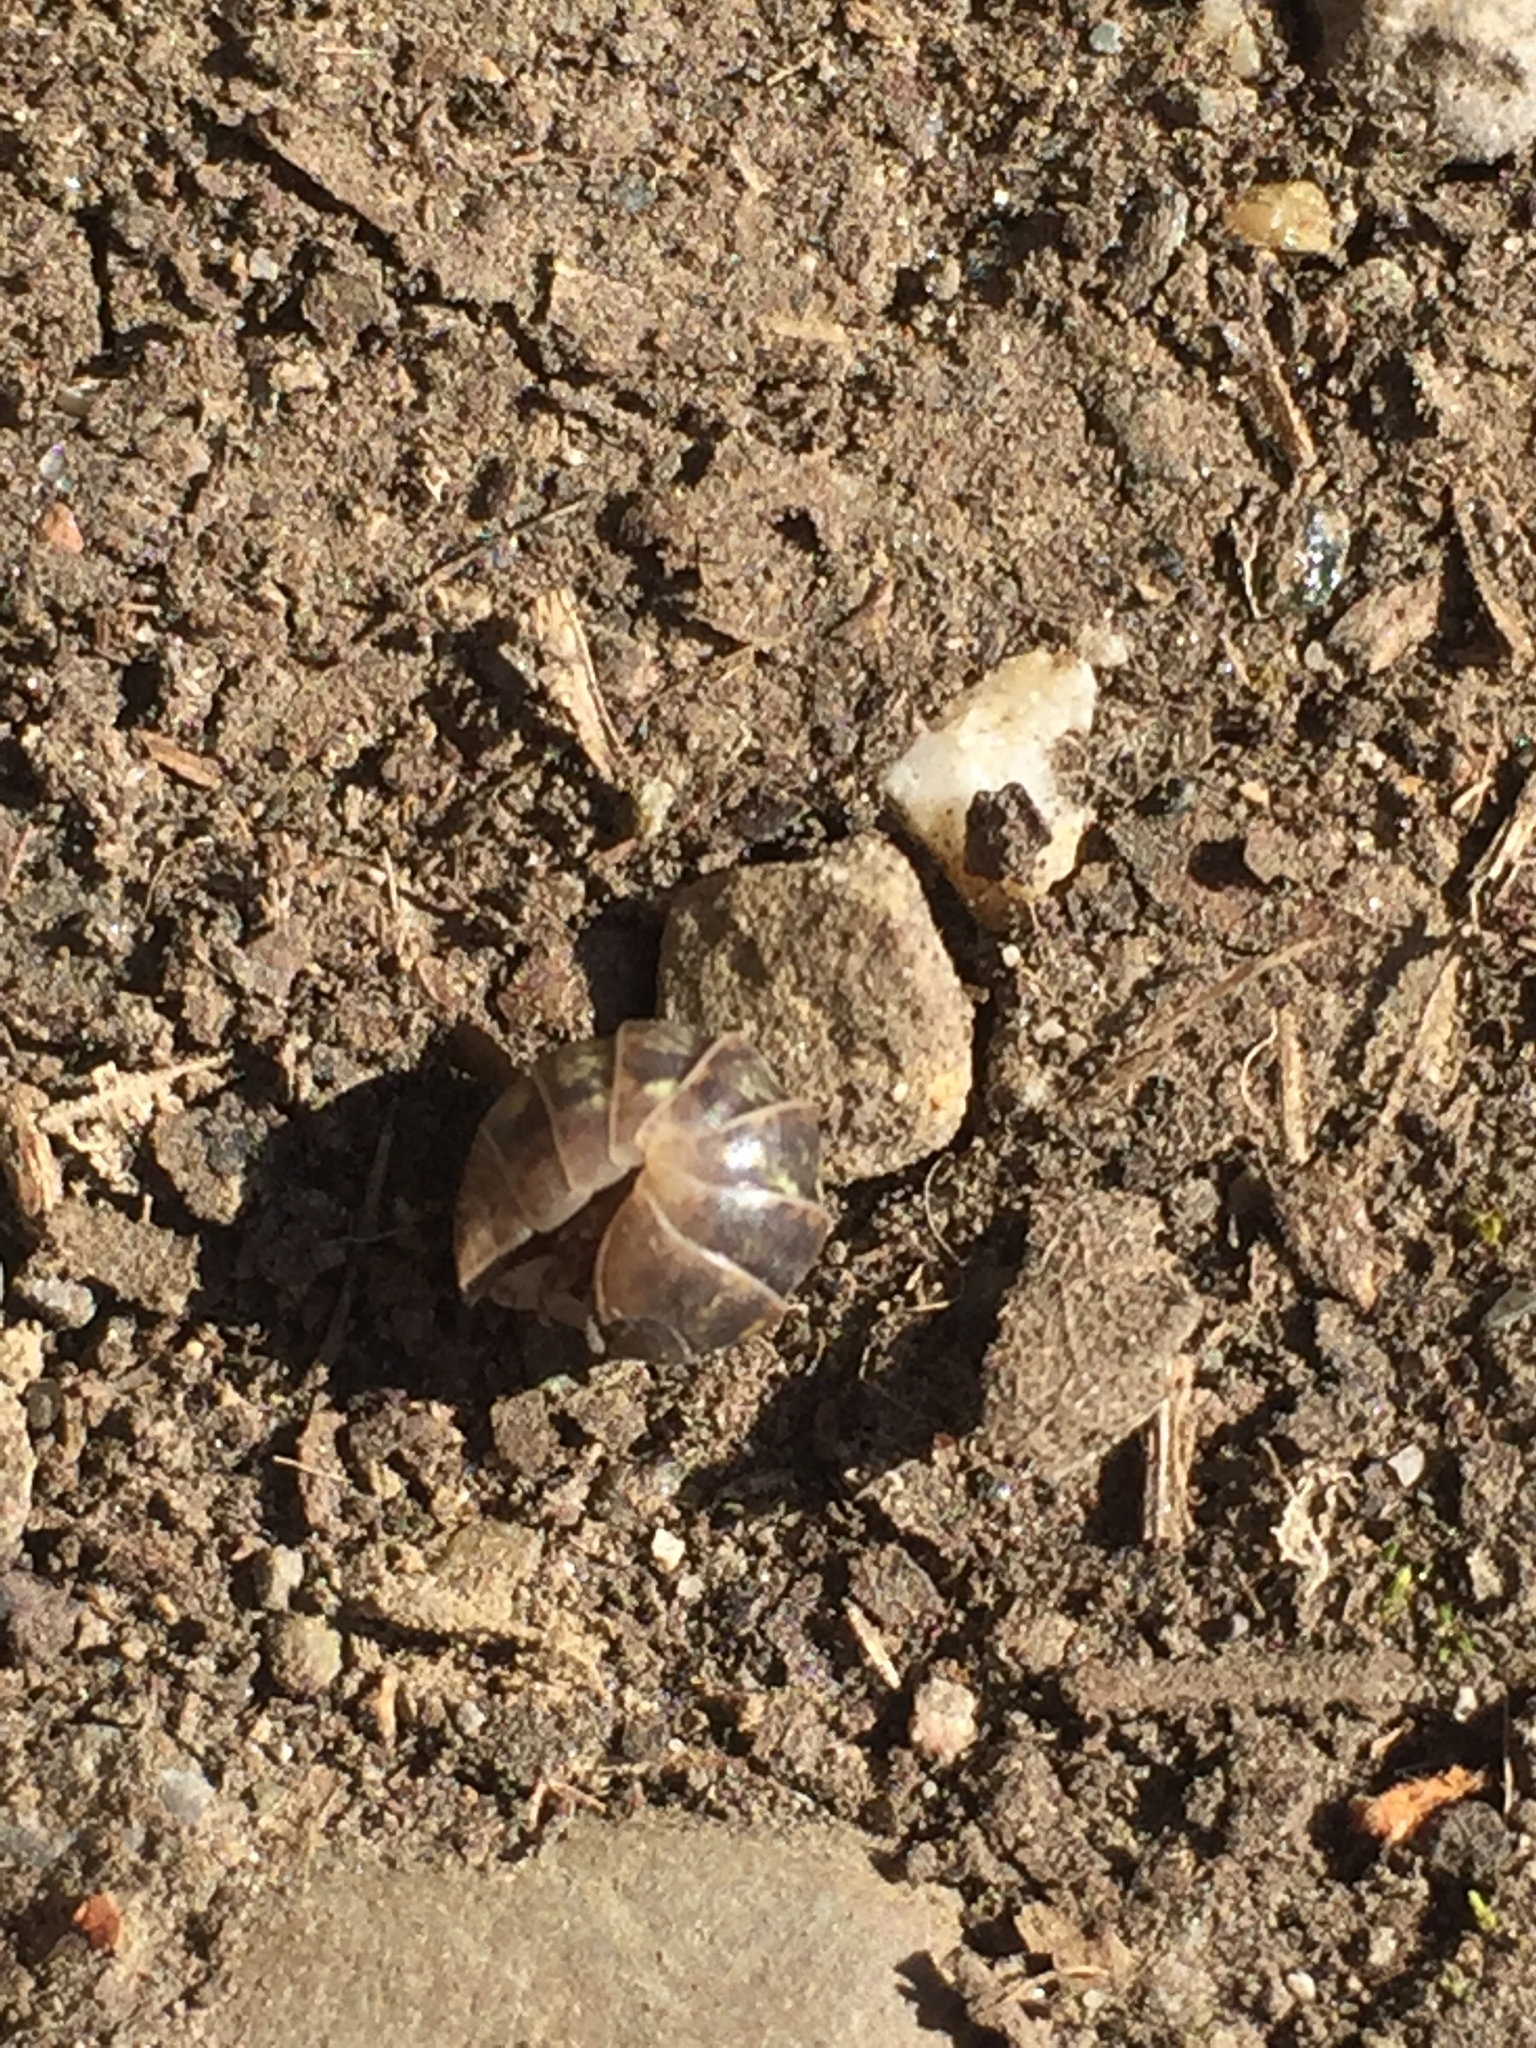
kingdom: Animalia
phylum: Arthropoda
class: Malacostraca
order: Isopoda
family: Armadillidiidae
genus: Armadillidium
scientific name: Armadillidium vulgare
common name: Common pill woodlouse
